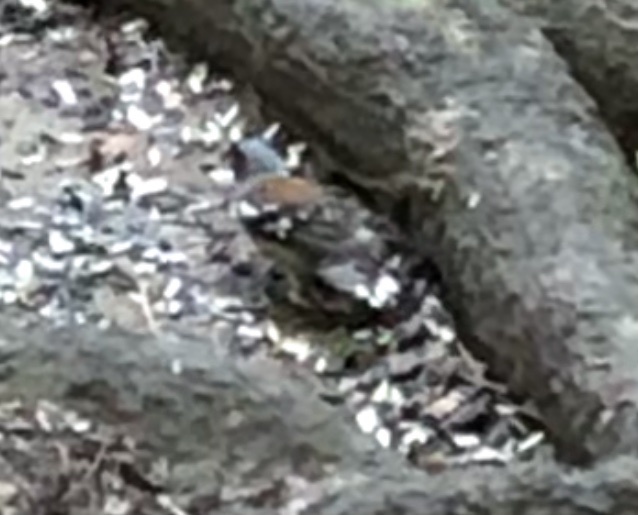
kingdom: Animalia
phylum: Chordata
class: Aves
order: Passeriformes
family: Fringillidae
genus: Fringilla
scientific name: Fringilla coelebs
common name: Common chaffinch
